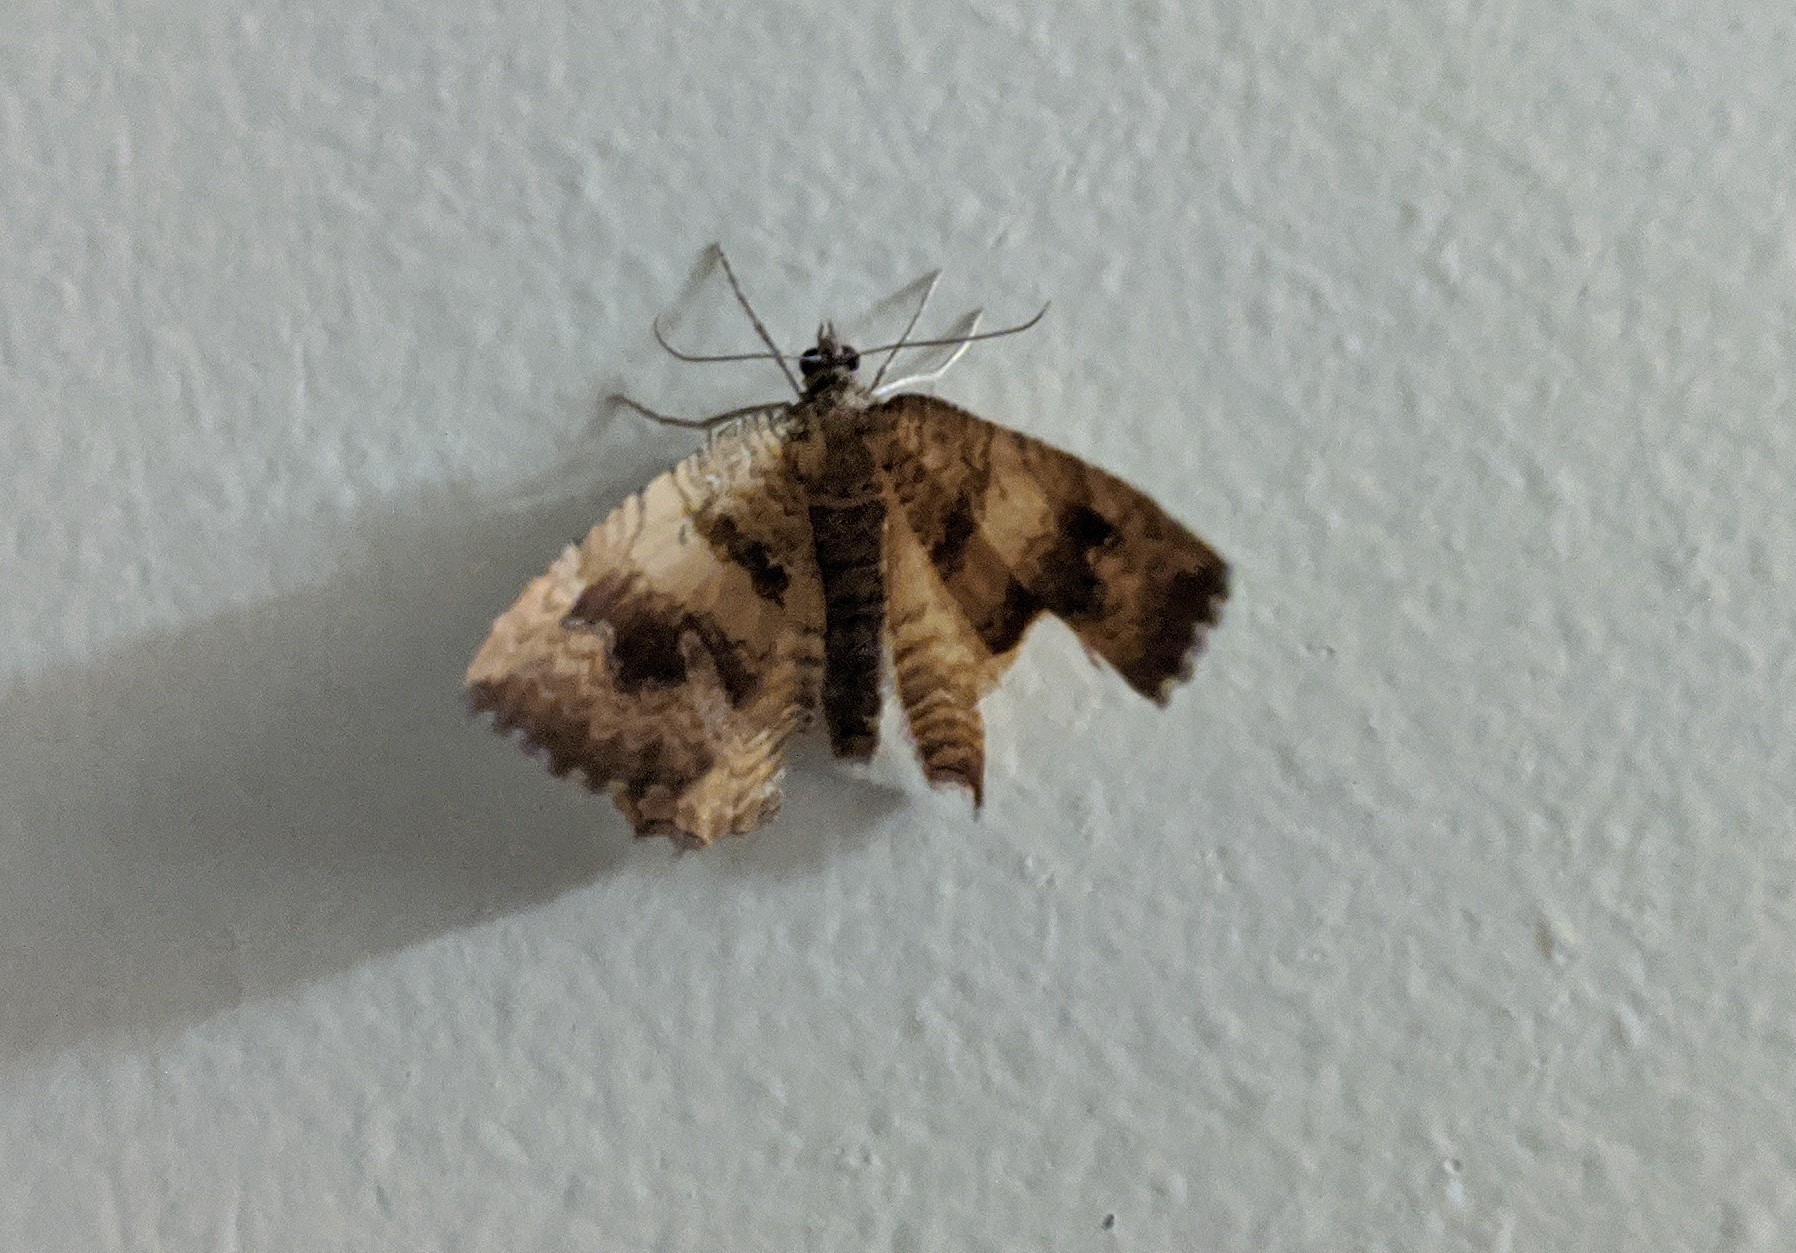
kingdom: Animalia
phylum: Arthropoda
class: Insecta
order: Lepidoptera
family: Geometridae
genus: Camptogramma
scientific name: Camptogramma bilineata
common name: Yellow shell
